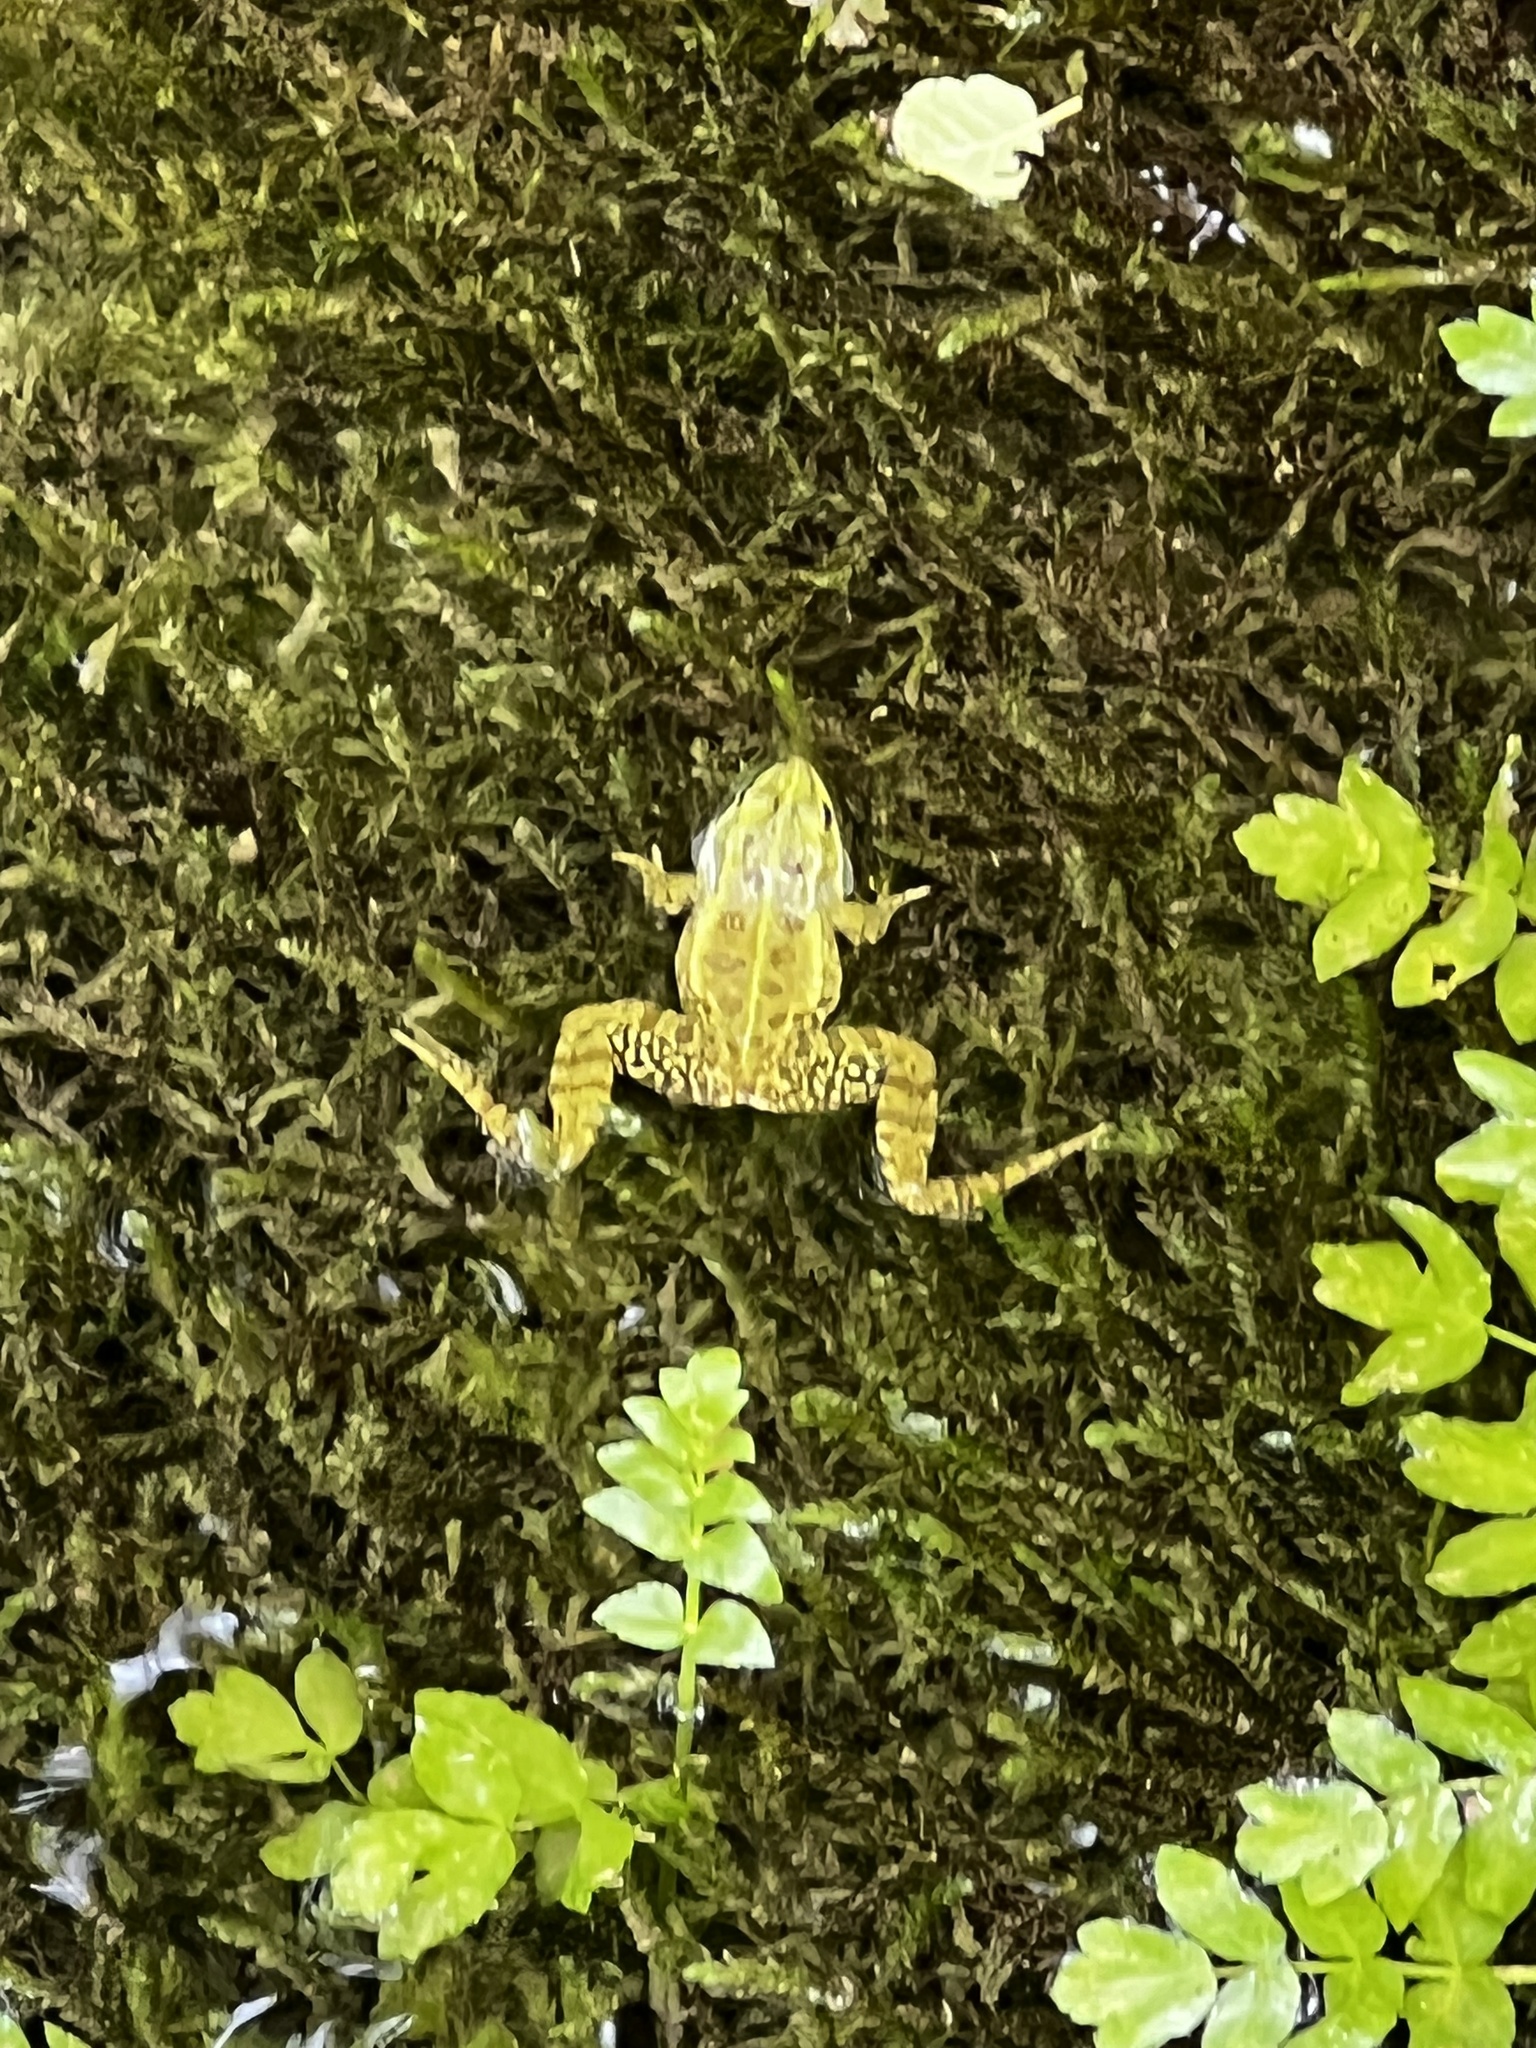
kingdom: Animalia
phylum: Chordata
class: Amphibia
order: Anura
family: Ranidae
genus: Pelophylax
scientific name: Pelophylax ridibundus
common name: Marsh frog
